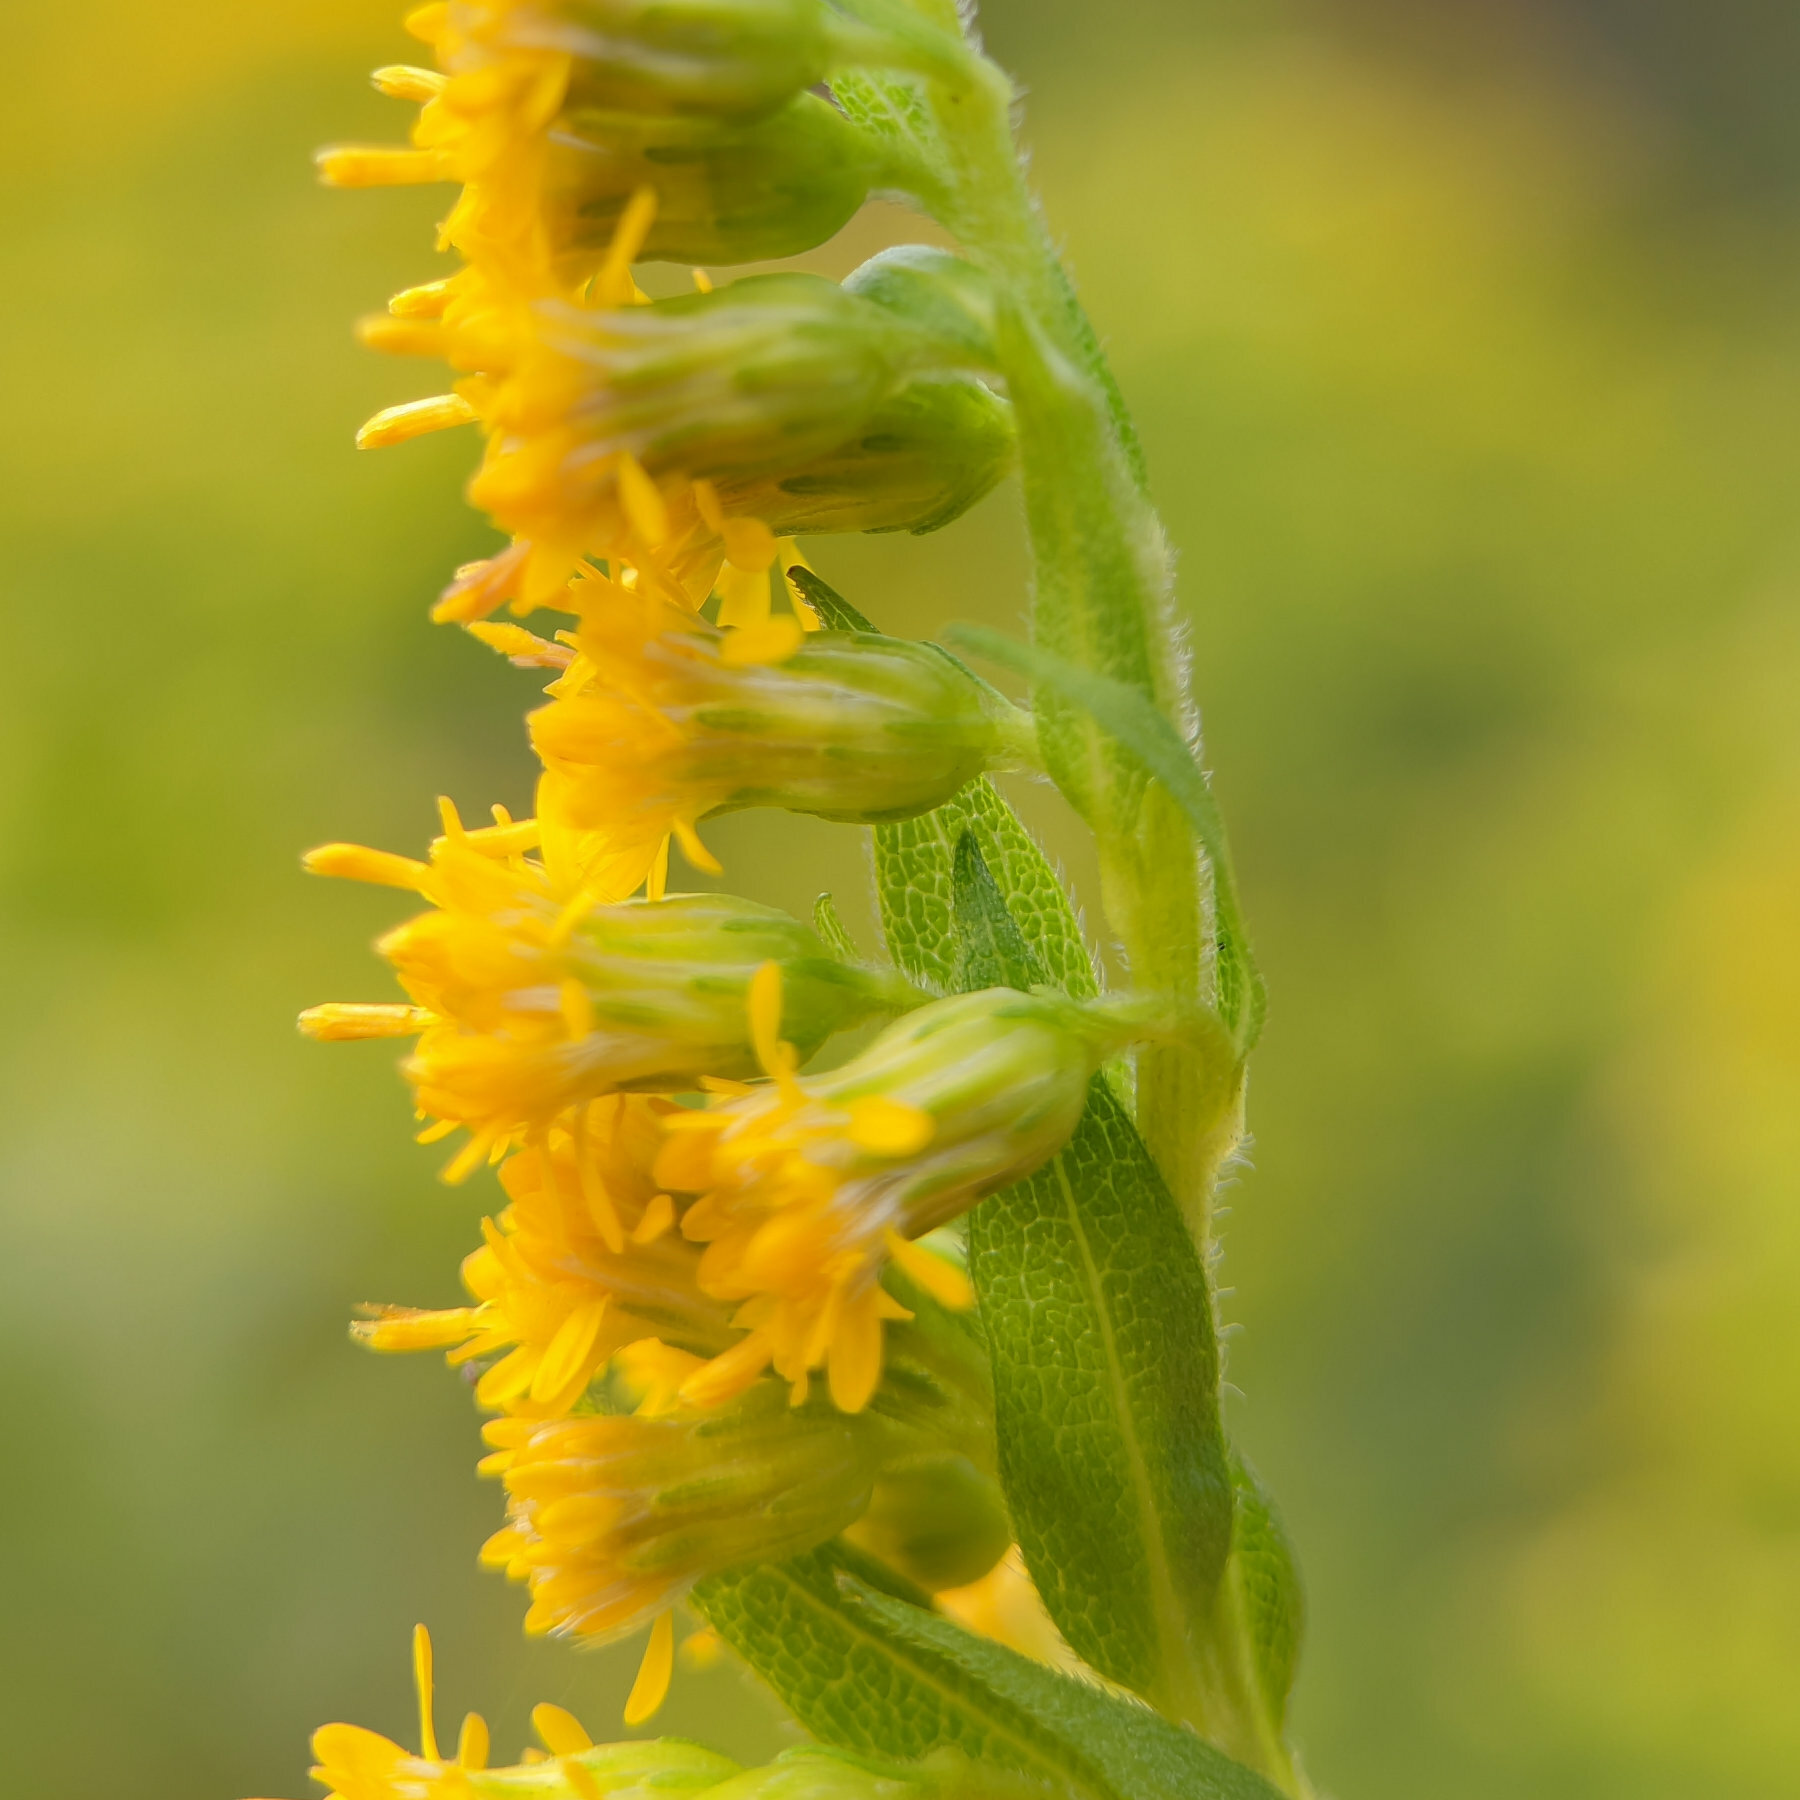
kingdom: Plantae
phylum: Tracheophyta
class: Magnoliopsida
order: Asterales
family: Asteraceae
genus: Solidago
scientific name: Solidago gigantea
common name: Giant goldenrod
